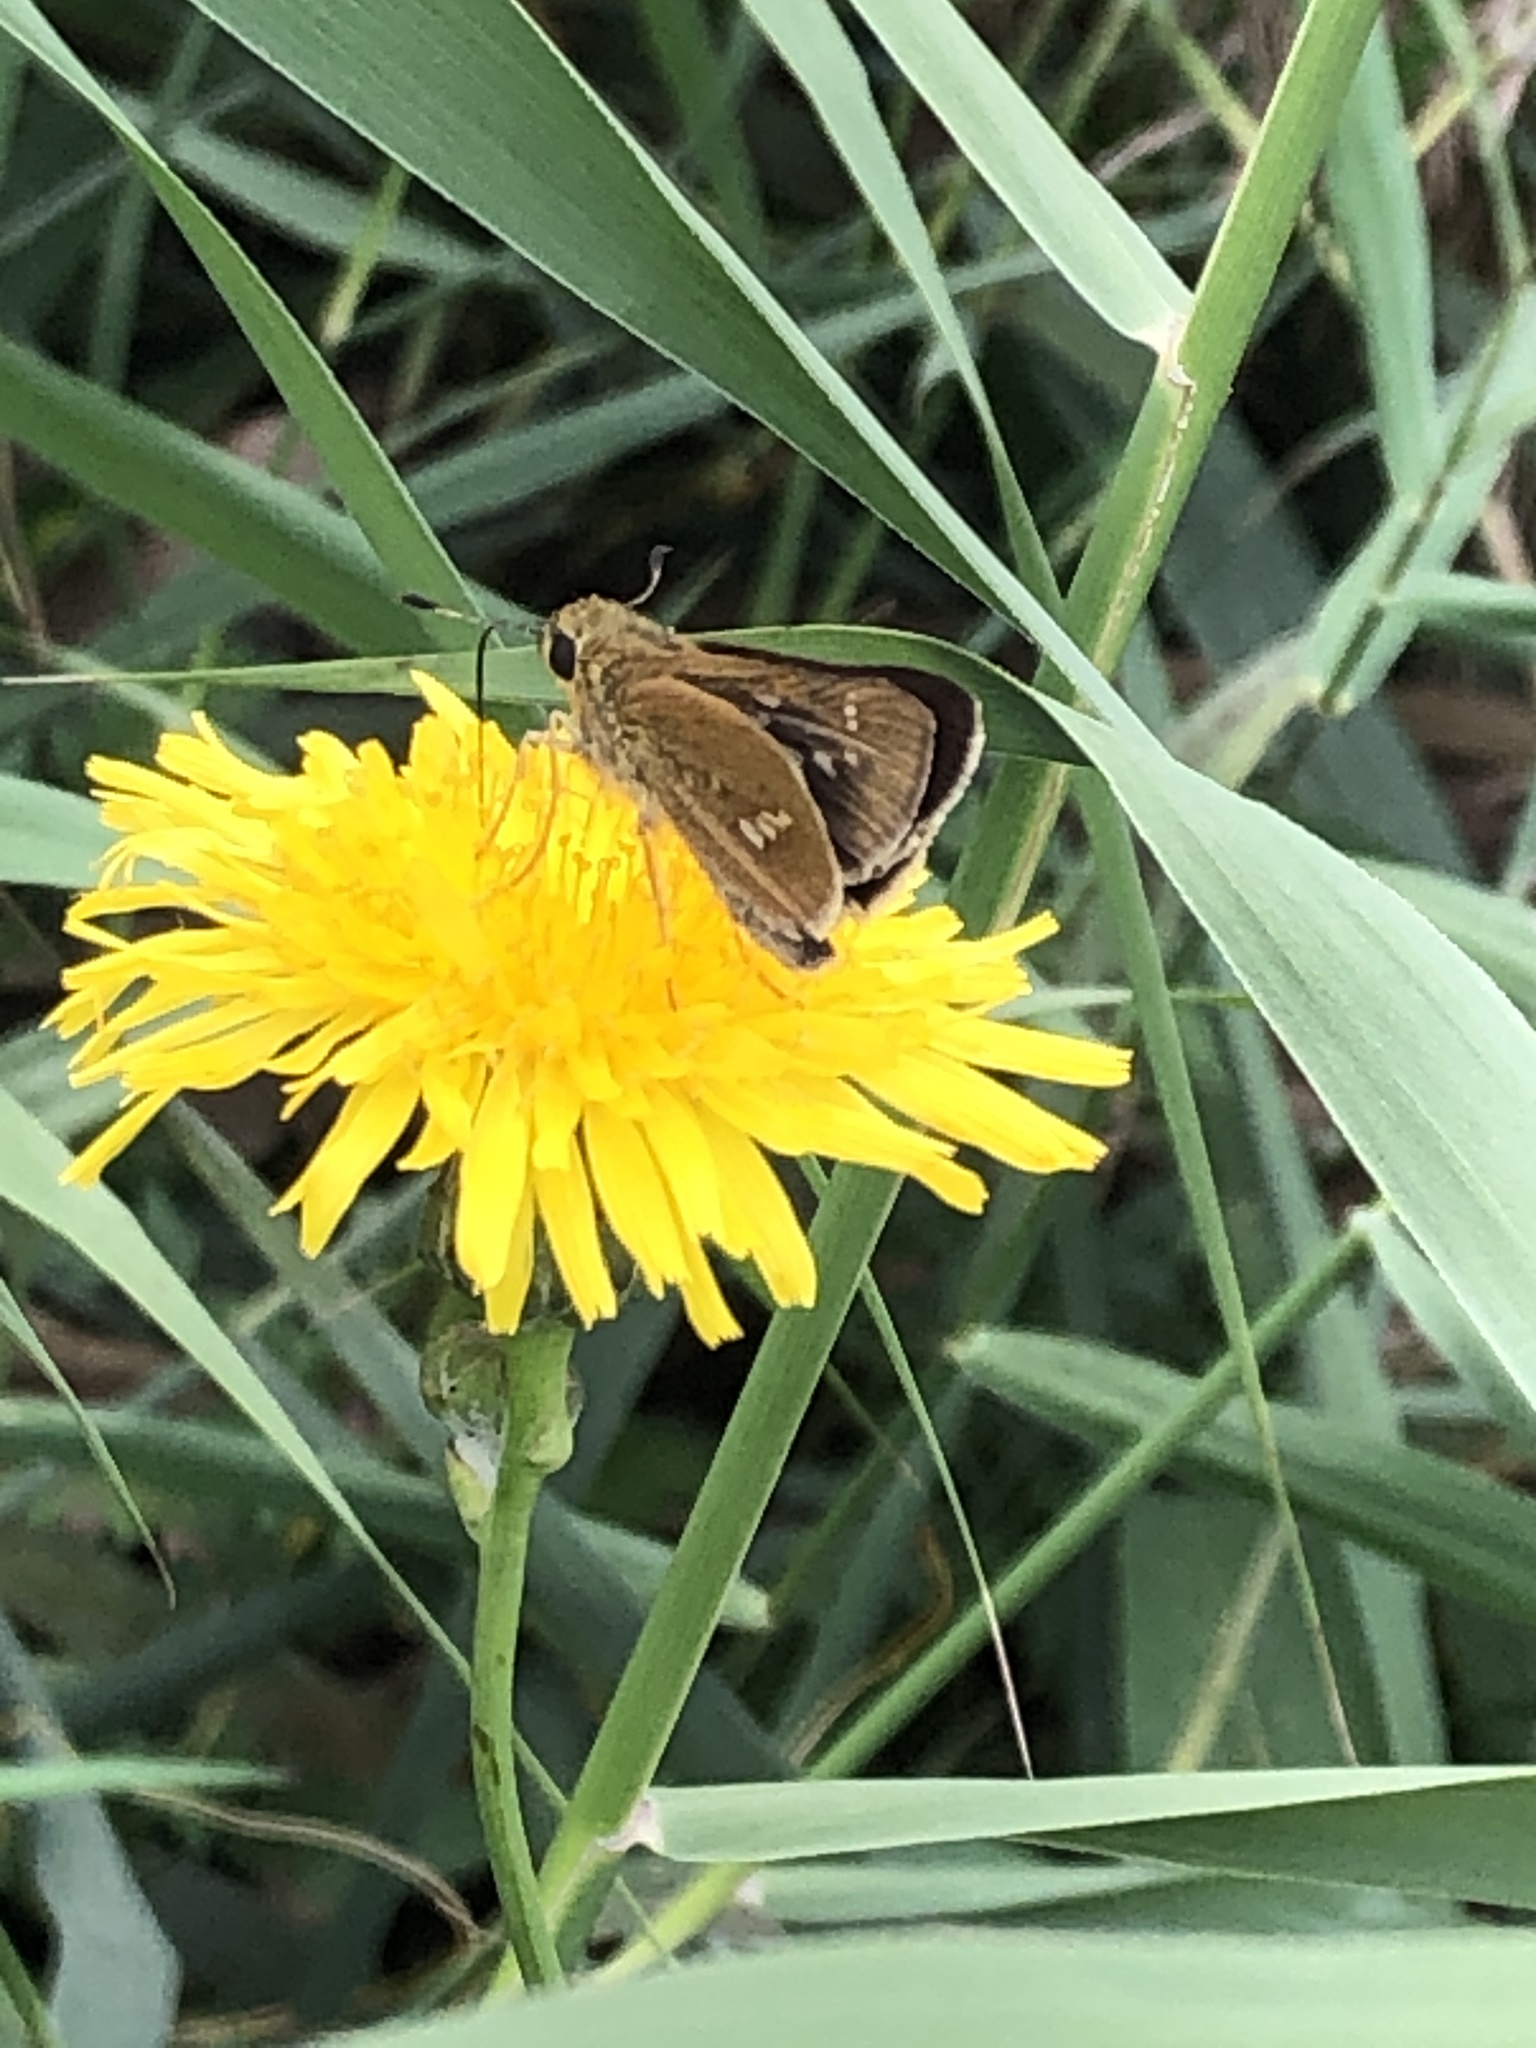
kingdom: Animalia
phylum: Arthropoda
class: Insecta
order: Lepidoptera
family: Hesperiidae
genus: Parnara
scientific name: Parnara guttatus
